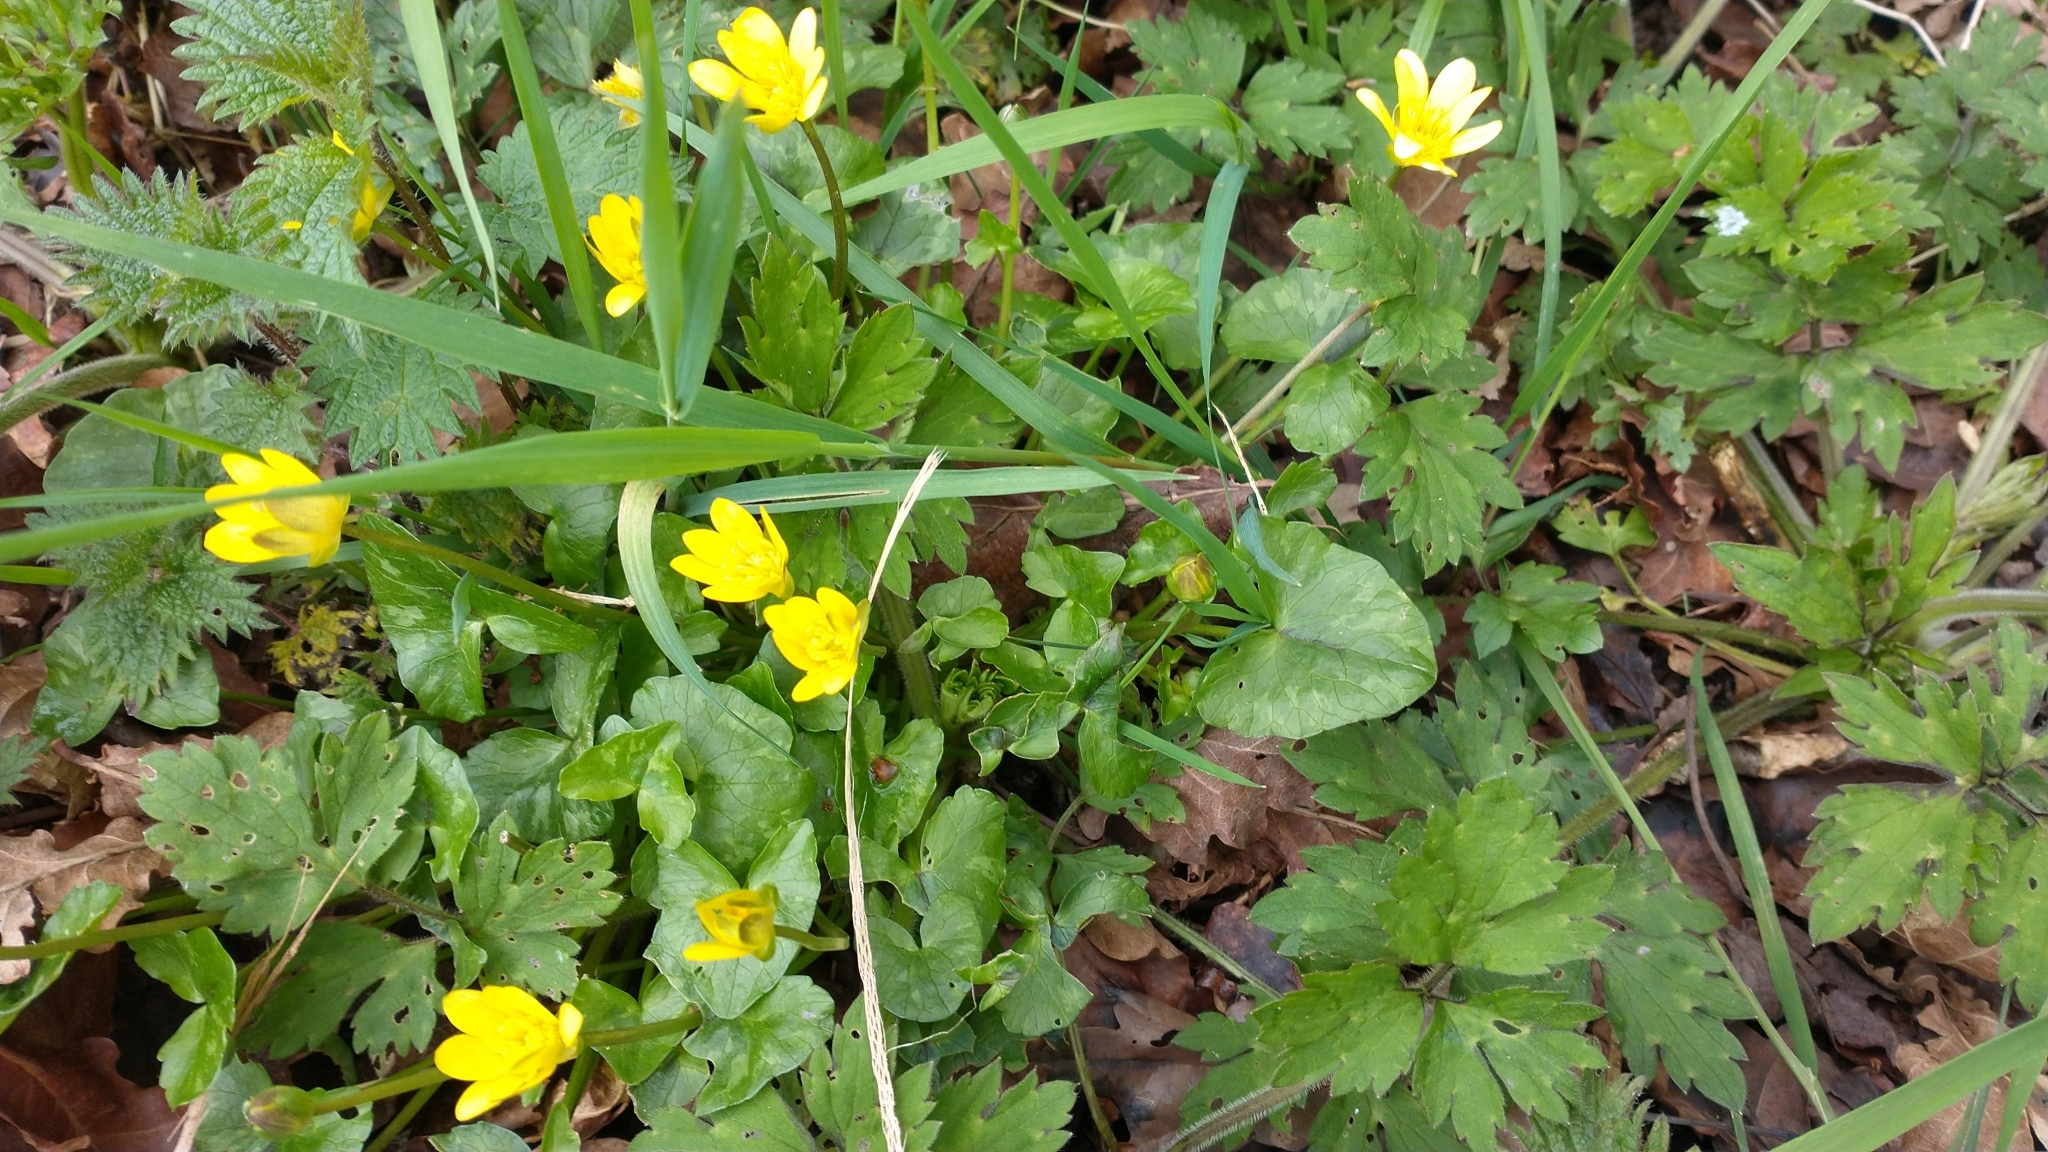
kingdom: Plantae
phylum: Tracheophyta
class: Magnoliopsida
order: Ranunculales
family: Ranunculaceae
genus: Ficaria
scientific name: Ficaria verna
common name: Lesser celandine
